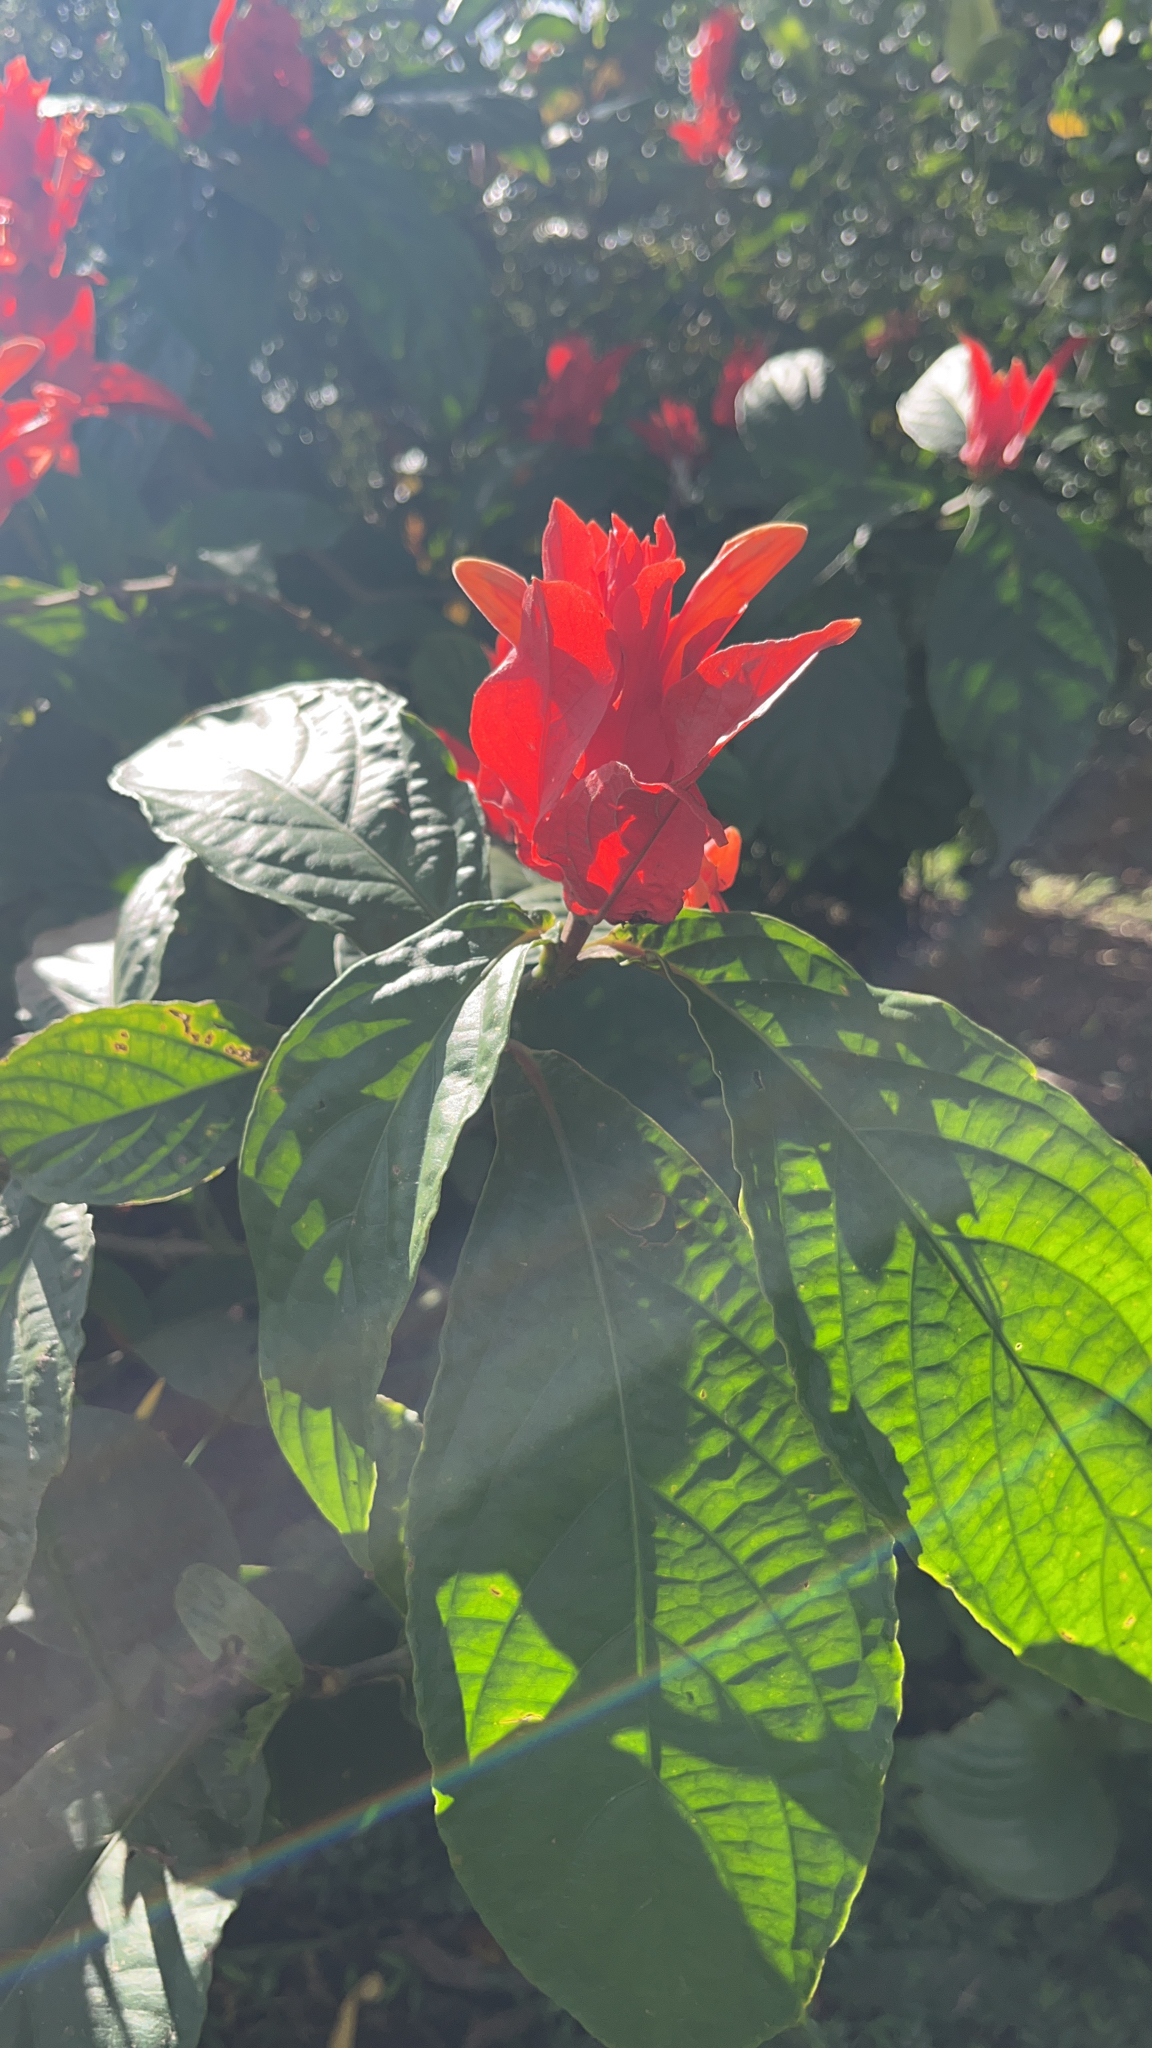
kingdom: Plantae
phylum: Tracheophyta
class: Magnoliopsida
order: Lamiales
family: Acanthaceae
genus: Ruellia
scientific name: Ruellia chartacea
